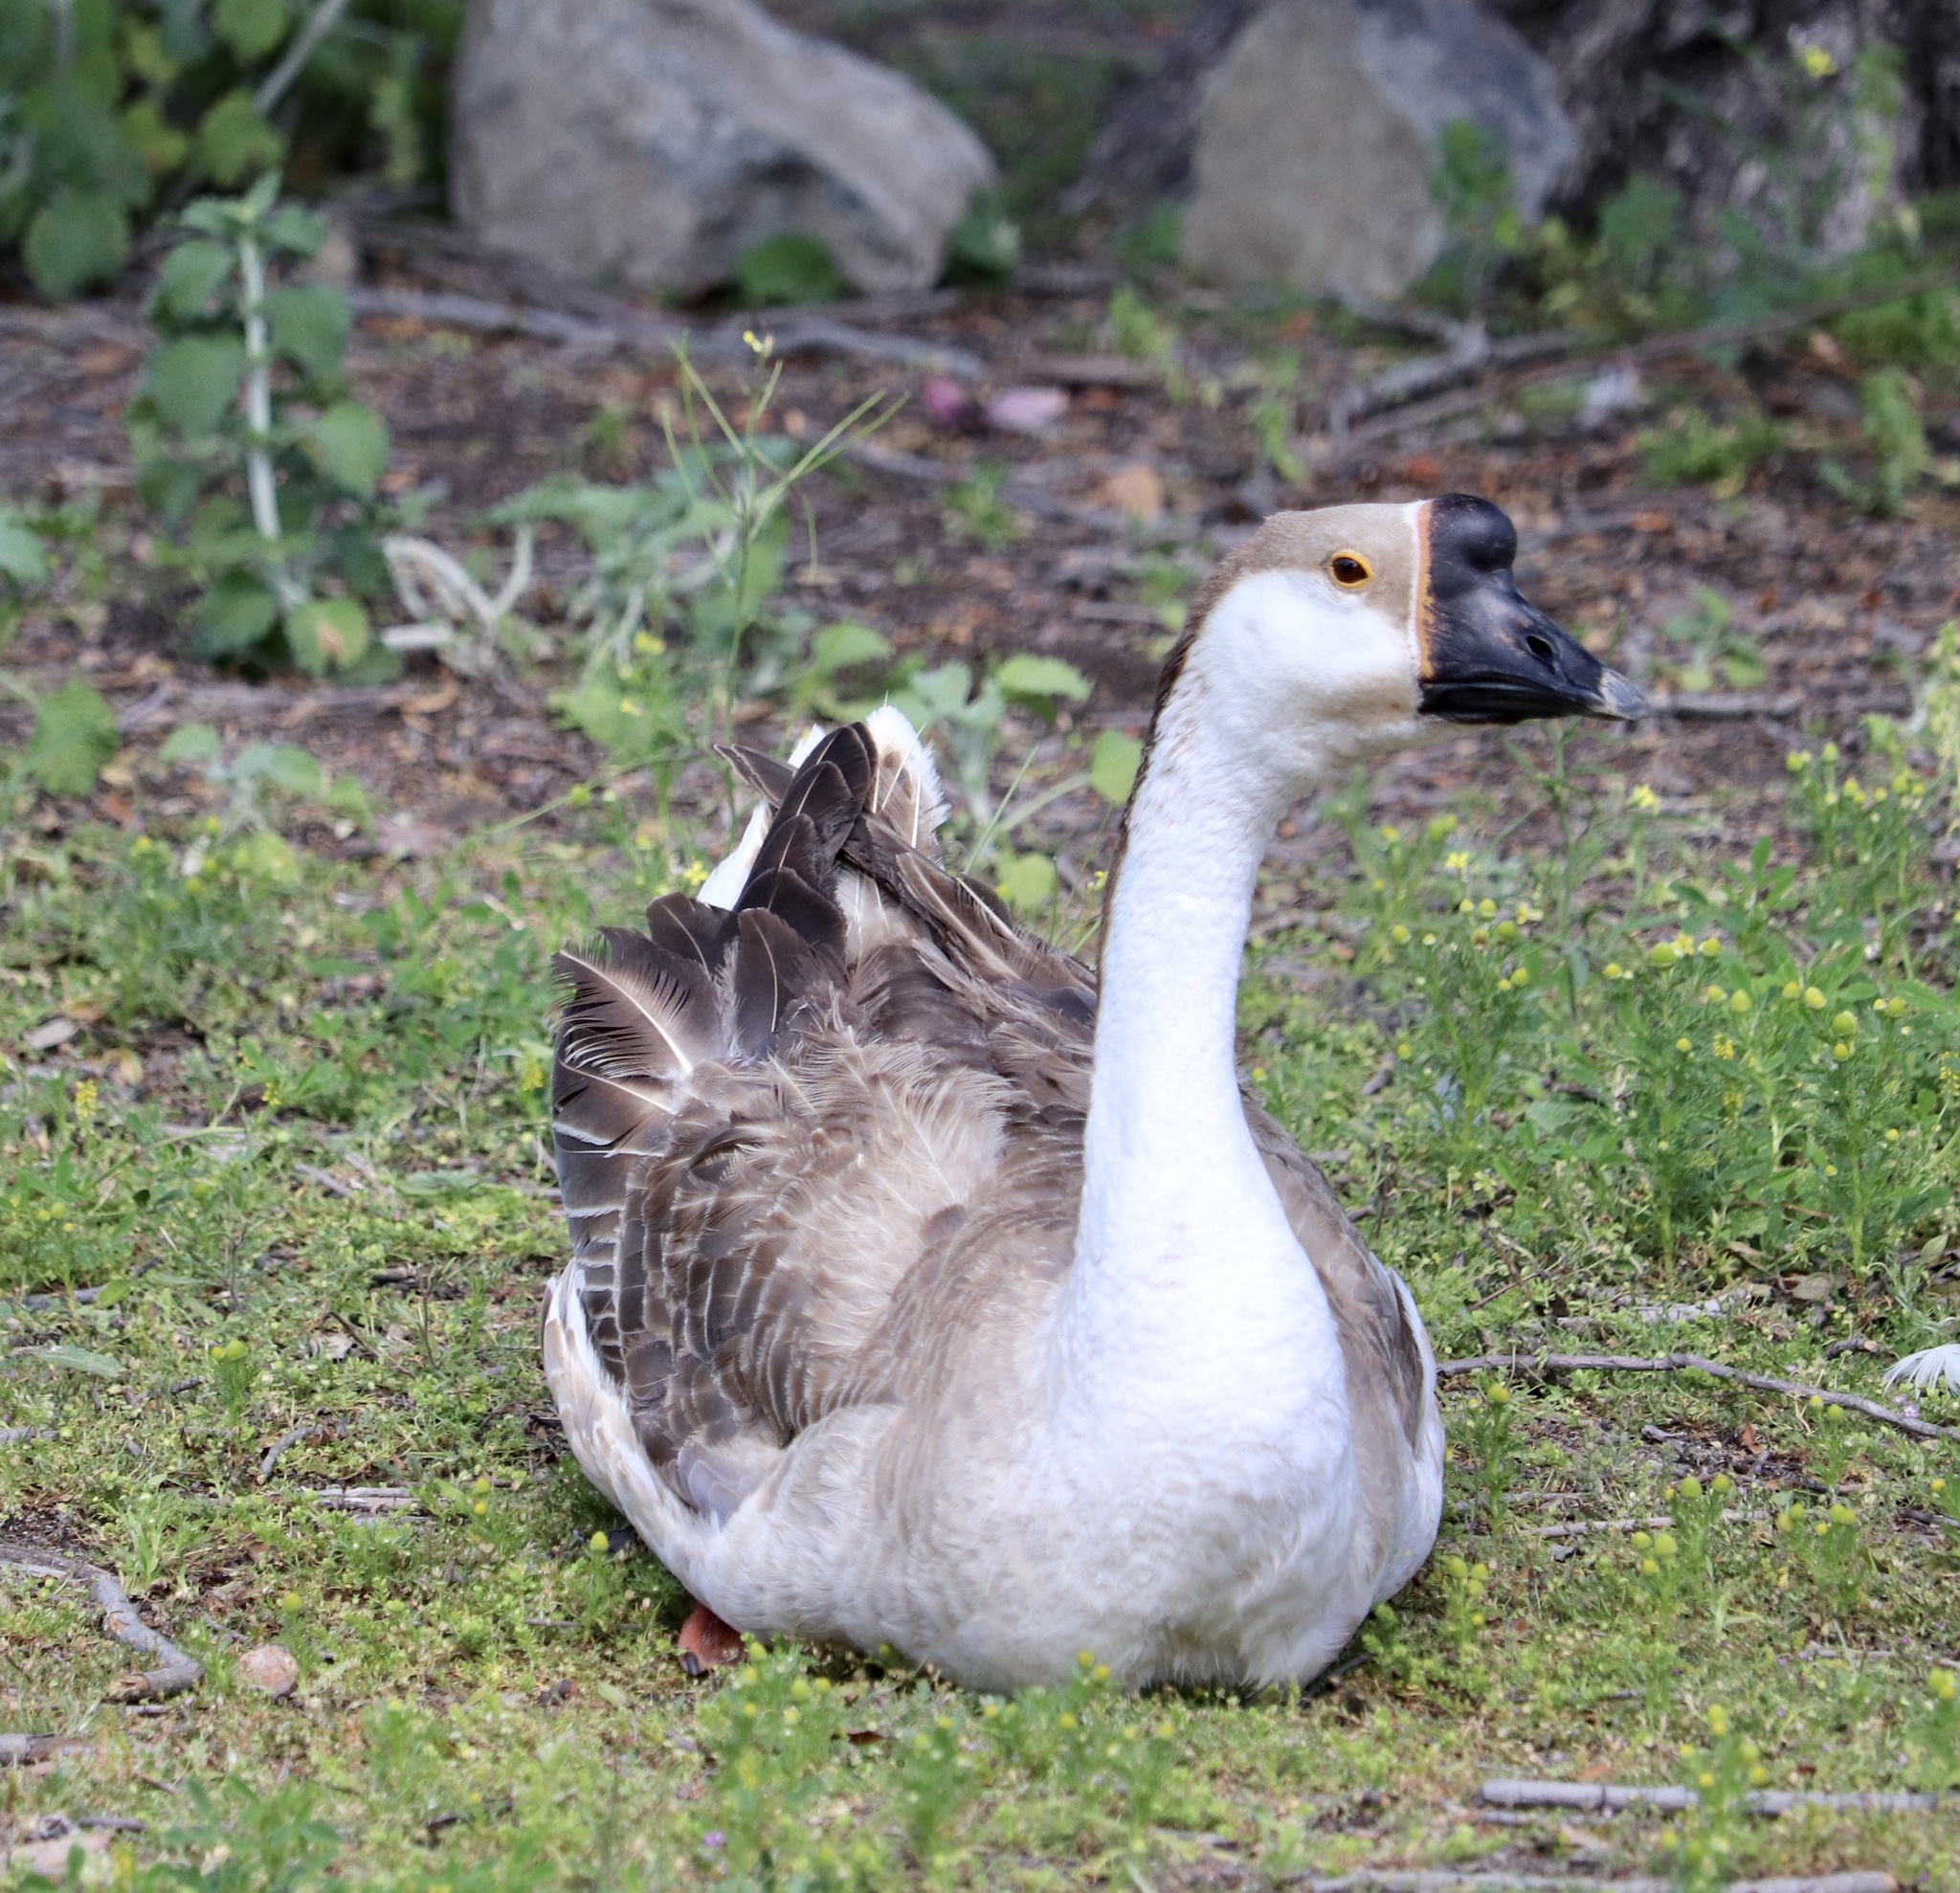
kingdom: Animalia
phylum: Chordata
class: Aves
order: Anseriformes
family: Anatidae
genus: Anser
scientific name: Anser cygnoides
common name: Swan goose
